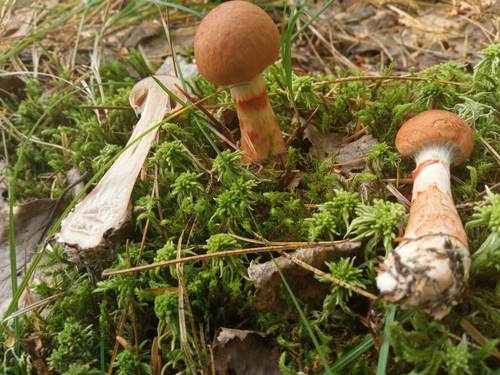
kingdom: Fungi
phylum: Basidiomycota
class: Agaricomycetes
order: Agaricales
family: Cortinariaceae
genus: Cortinarius
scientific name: Cortinarius armillatus
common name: Red banded webcap
